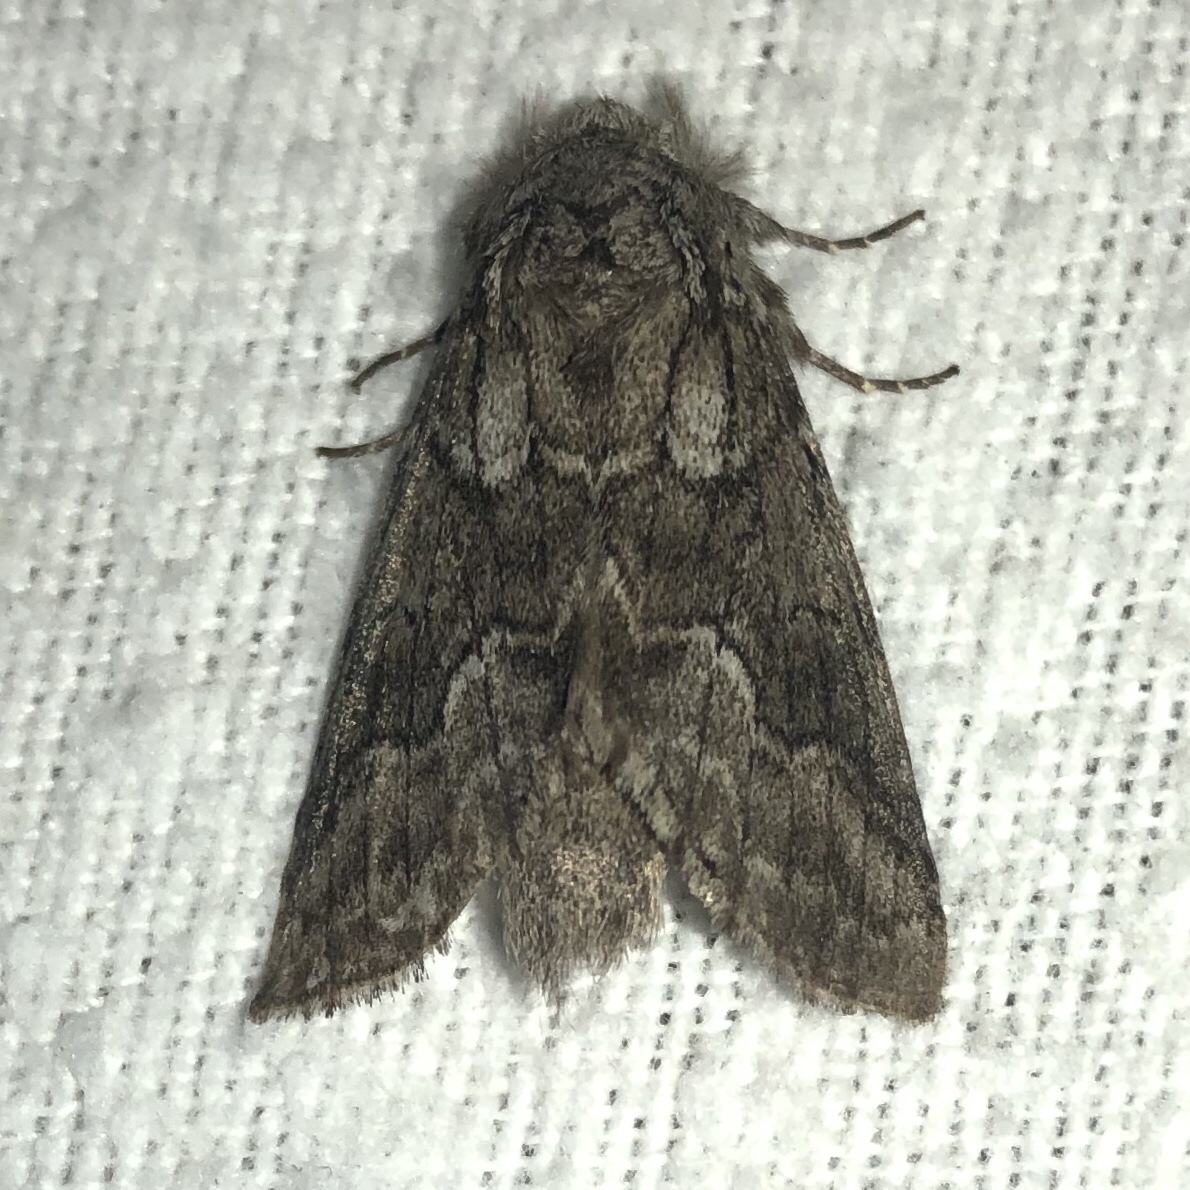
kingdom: Animalia
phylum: Arthropoda
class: Insecta
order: Lepidoptera
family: Notodontidae
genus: Lochmaeus
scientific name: Lochmaeus bilineata
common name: Double-lined prominent
